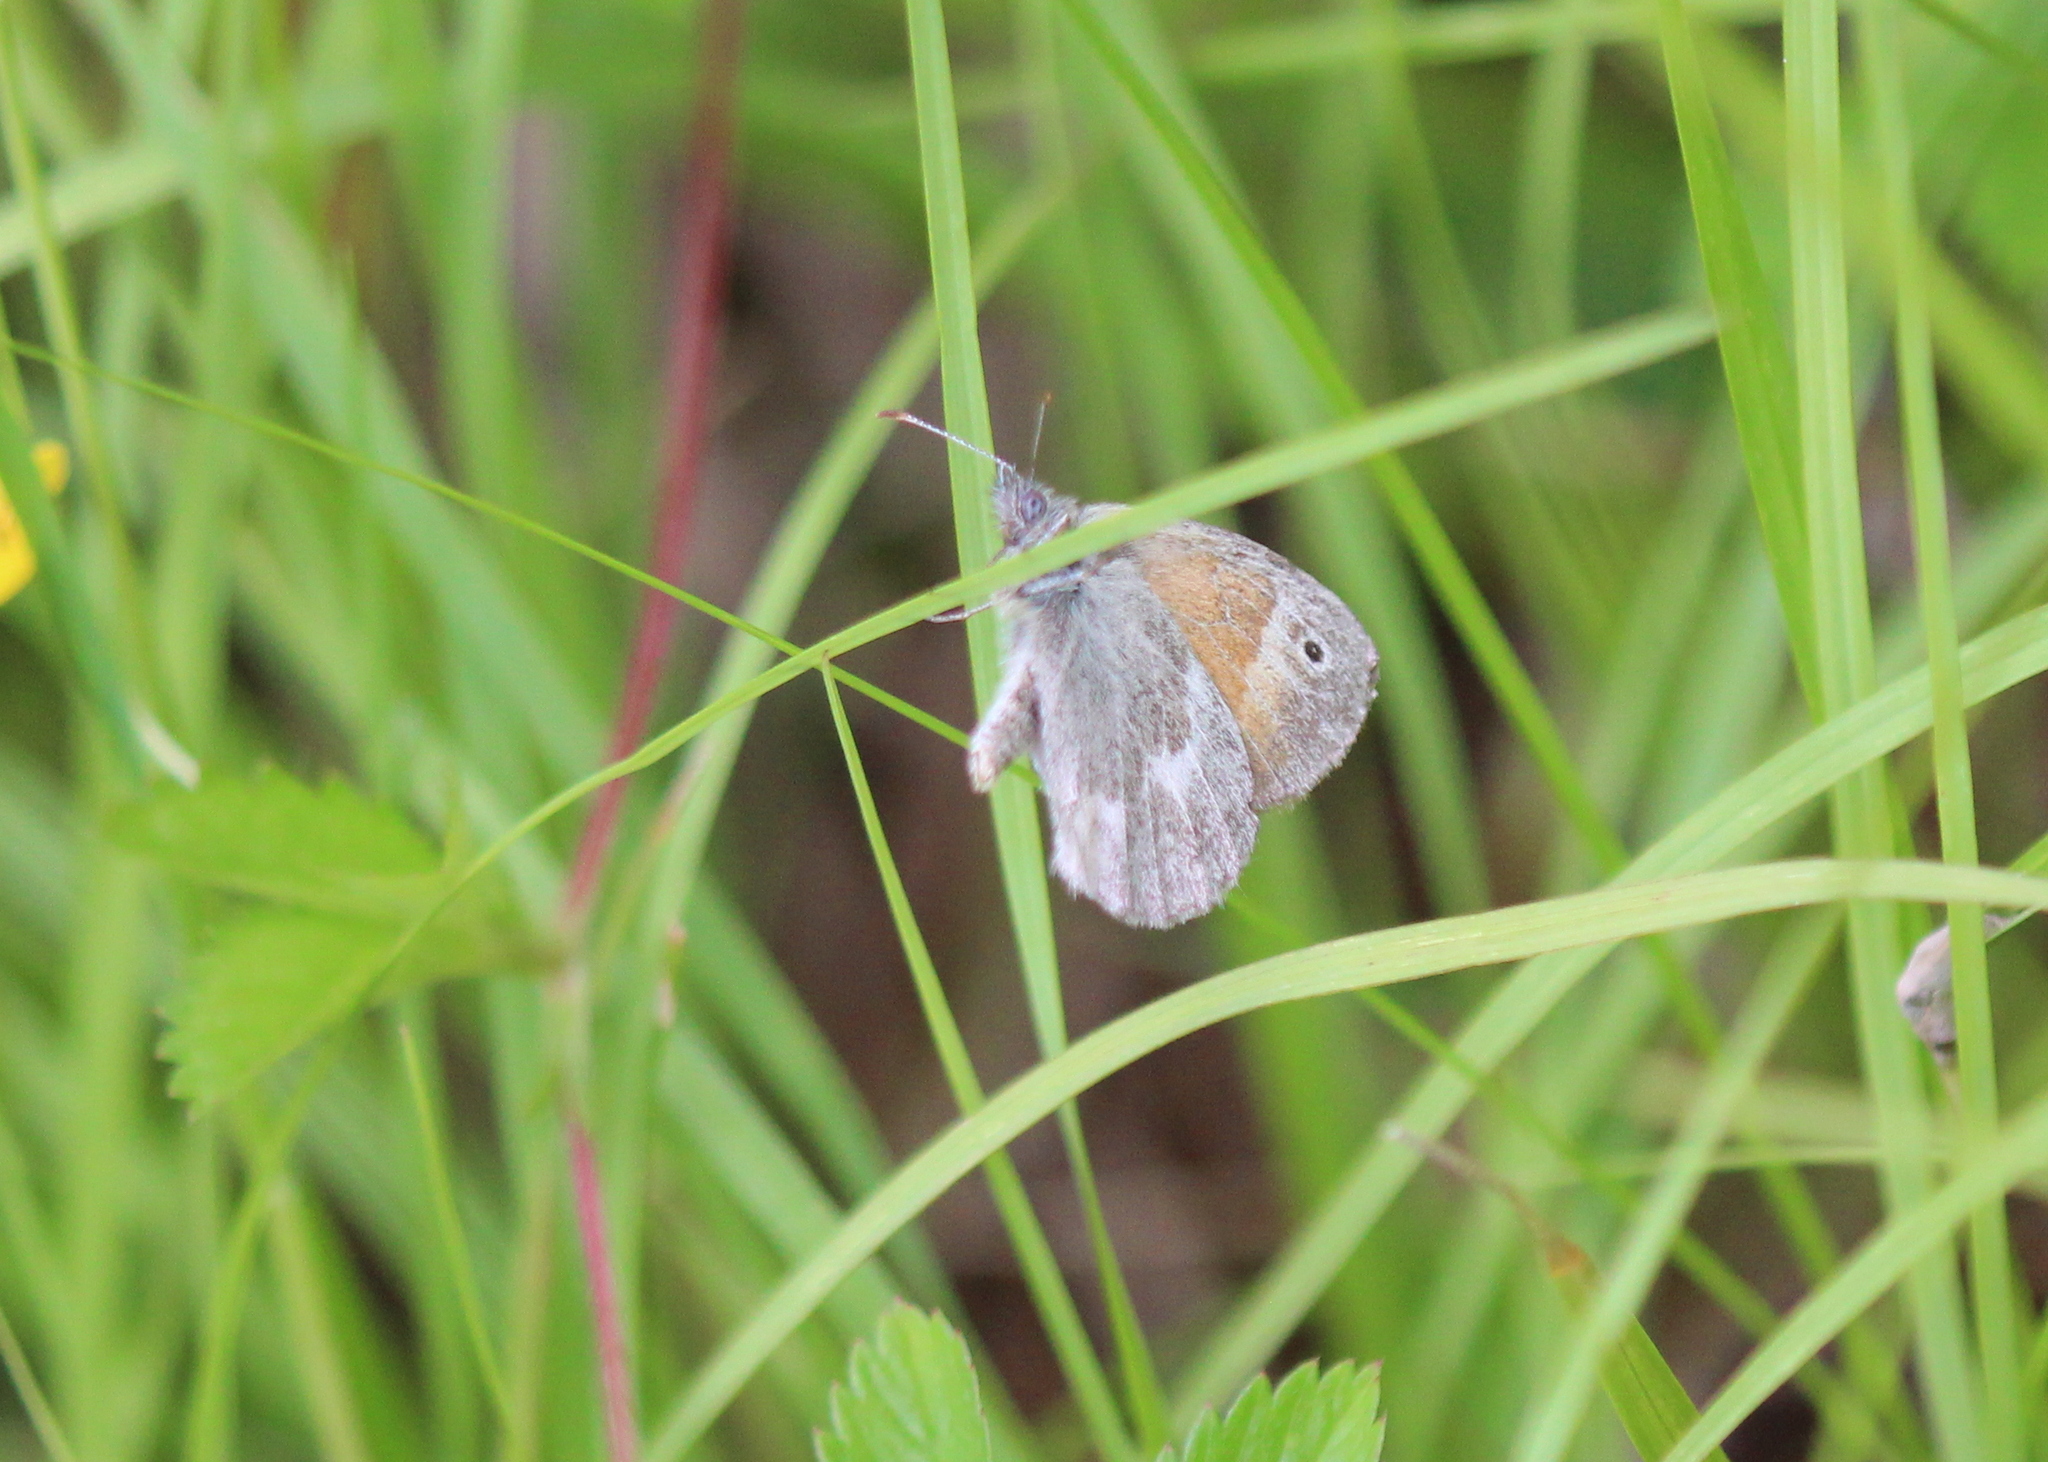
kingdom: Animalia
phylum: Arthropoda
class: Insecta
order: Lepidoptera
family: Nymphalidae
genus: Coenonympha
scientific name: Coenonympha california
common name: Common ringlet
